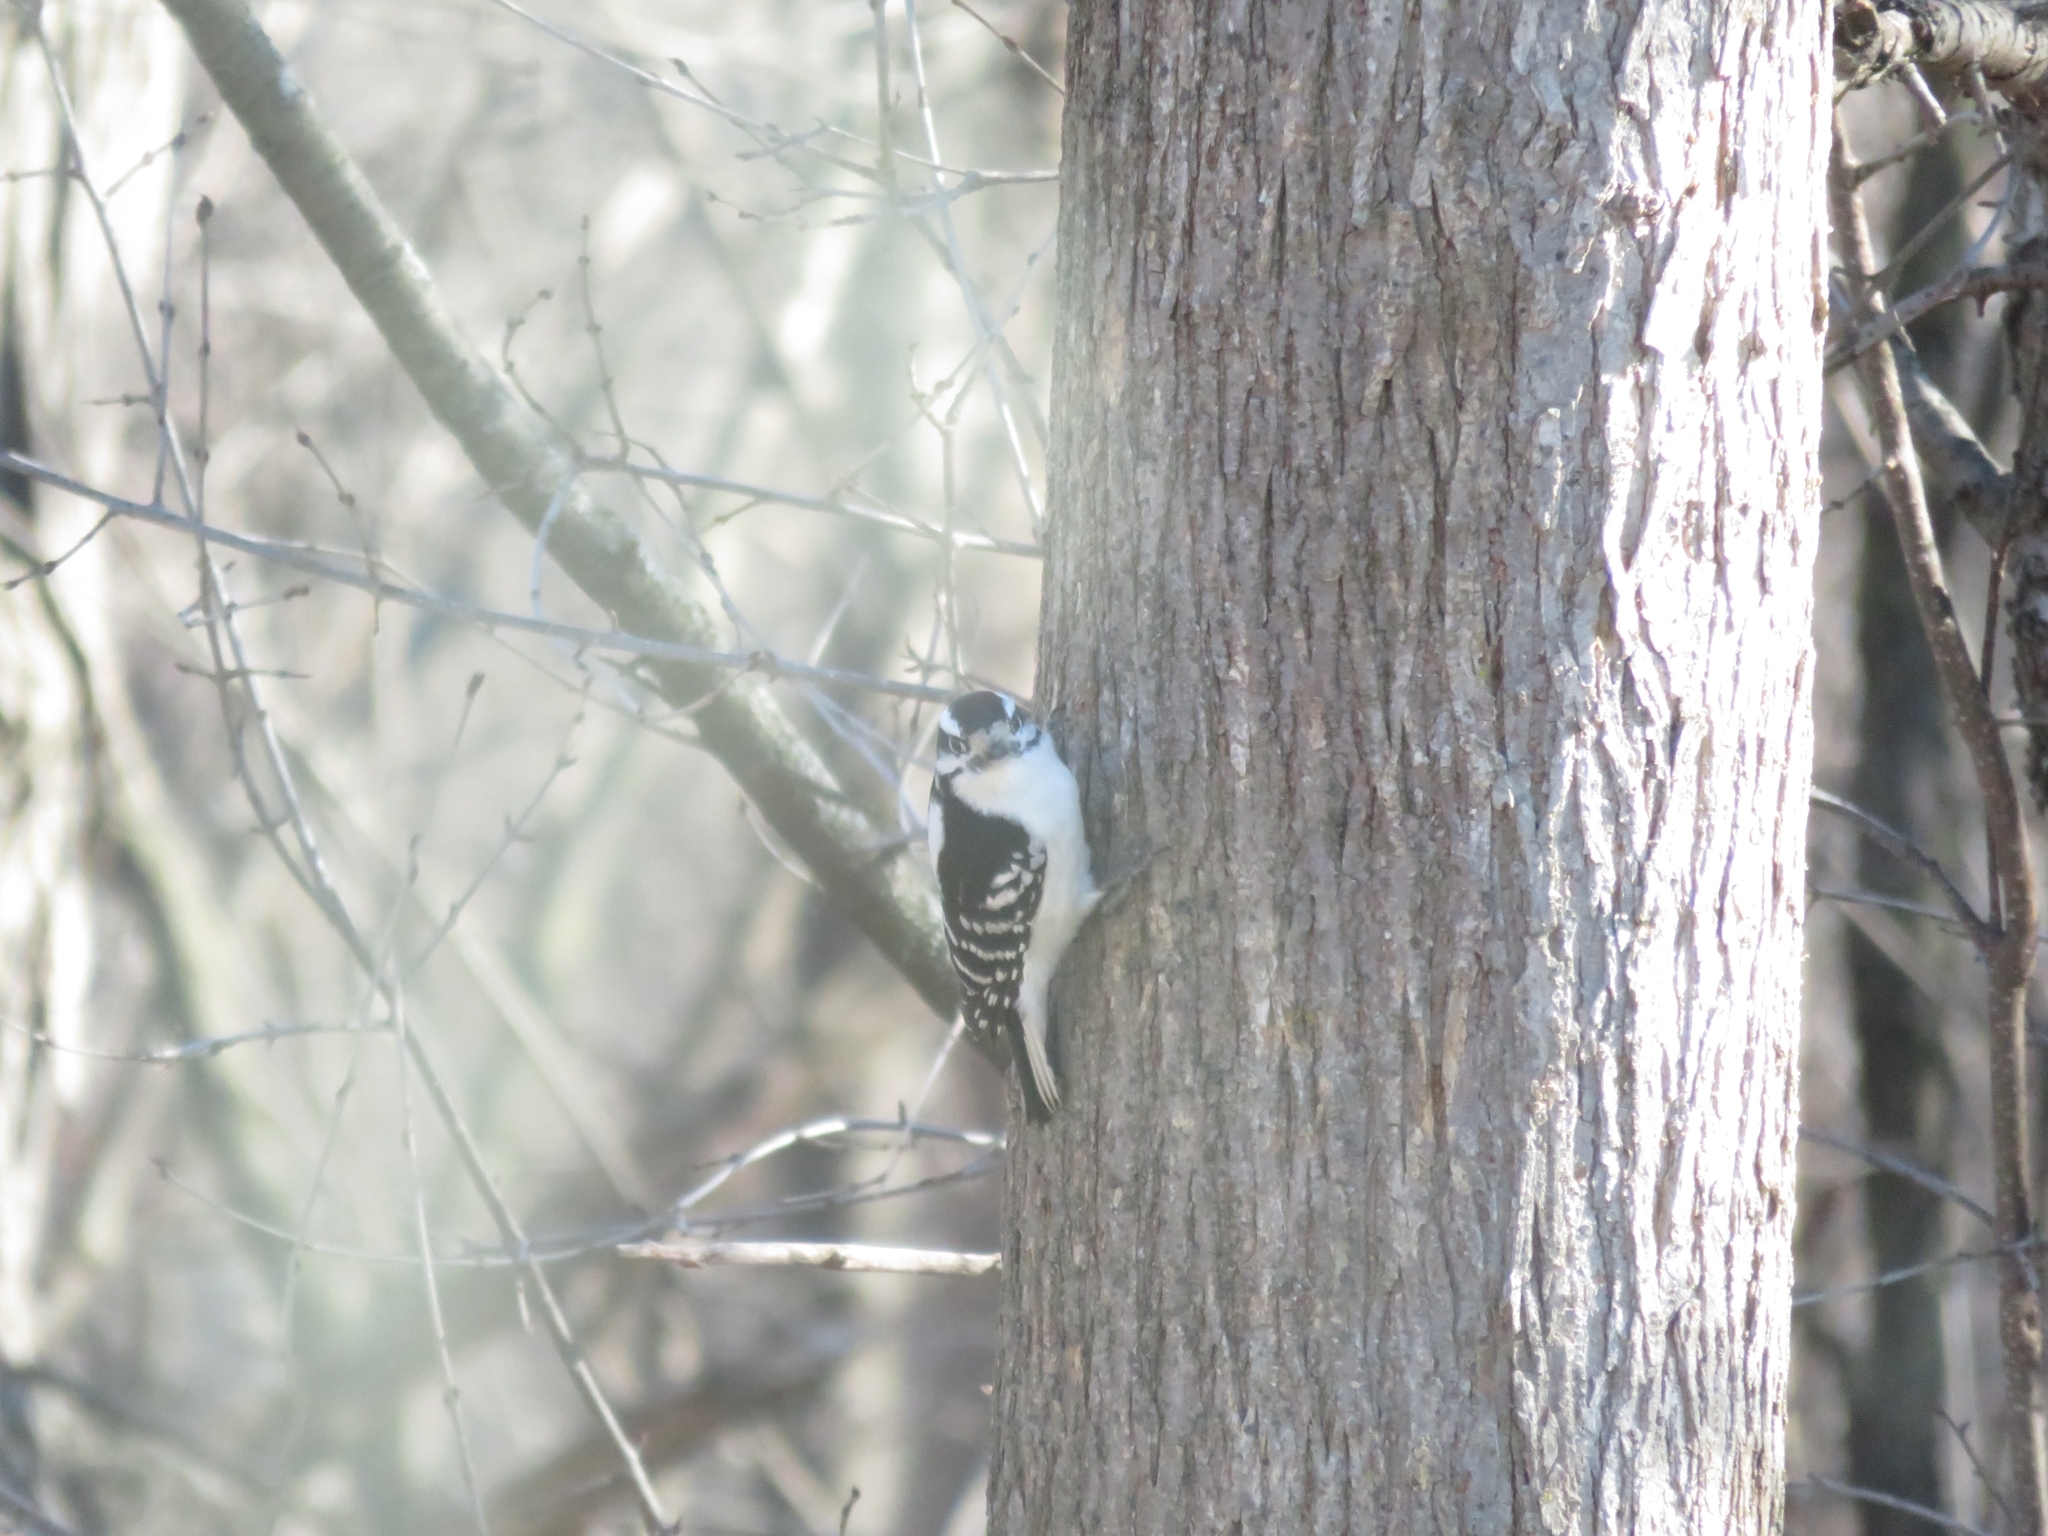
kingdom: Animalia
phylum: Chordata
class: Aves
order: Piciformes
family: Picidae
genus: Dryobates
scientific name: Dryobates pubescens
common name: Downy woodpecker
